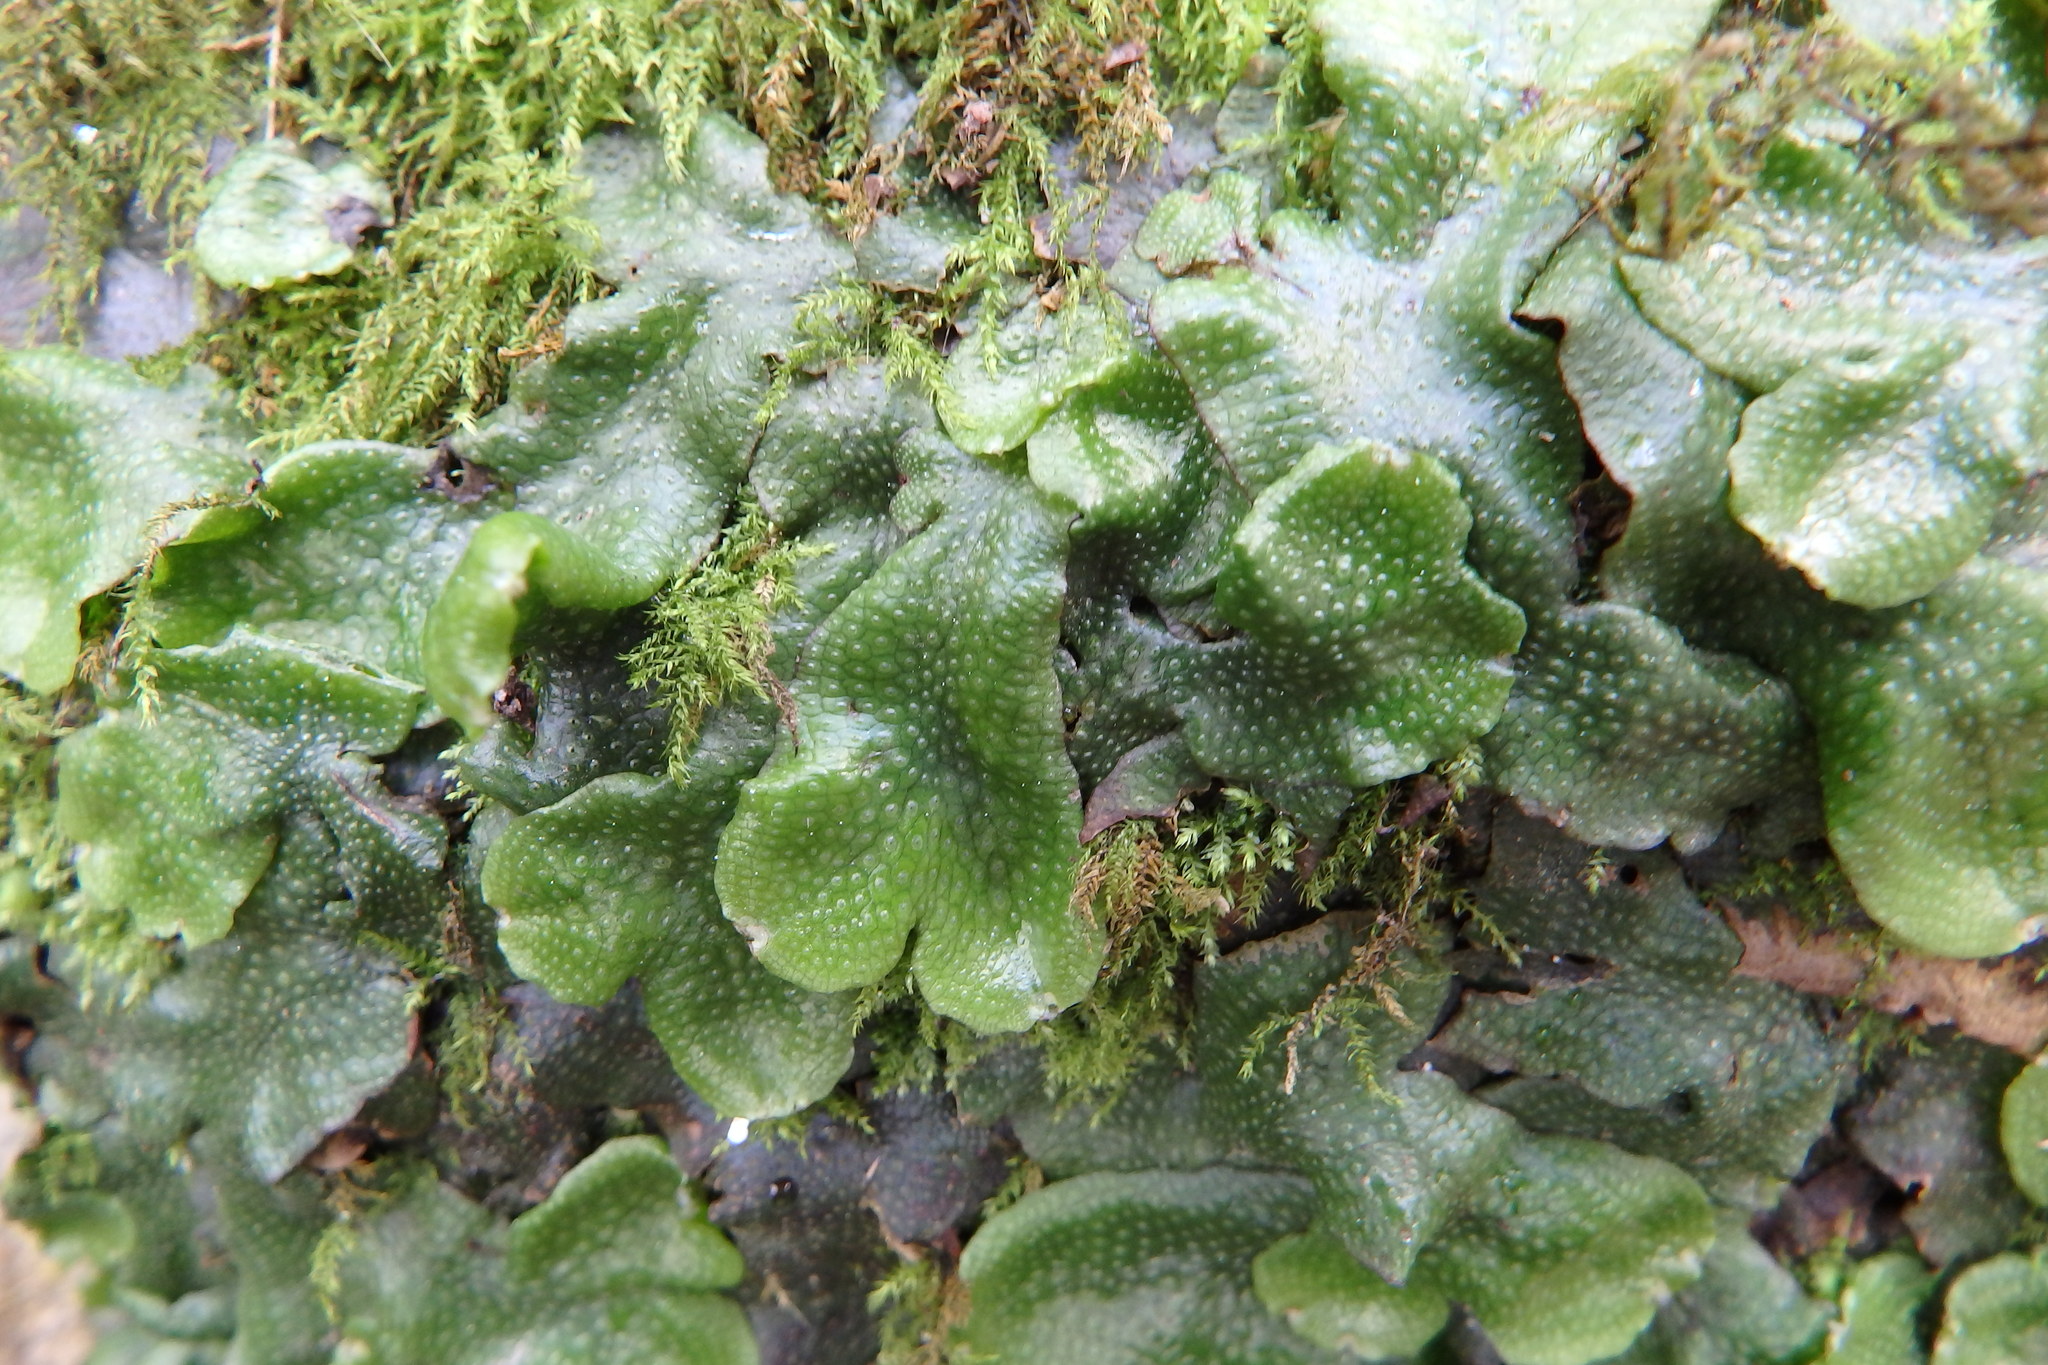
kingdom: Plantae
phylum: Marchantiophyta
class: Marchantiopsida
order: Marchantiales
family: Conocephalaceae
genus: Conocephalum
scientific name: Conocephalum conicum
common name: Great scented liverwort
